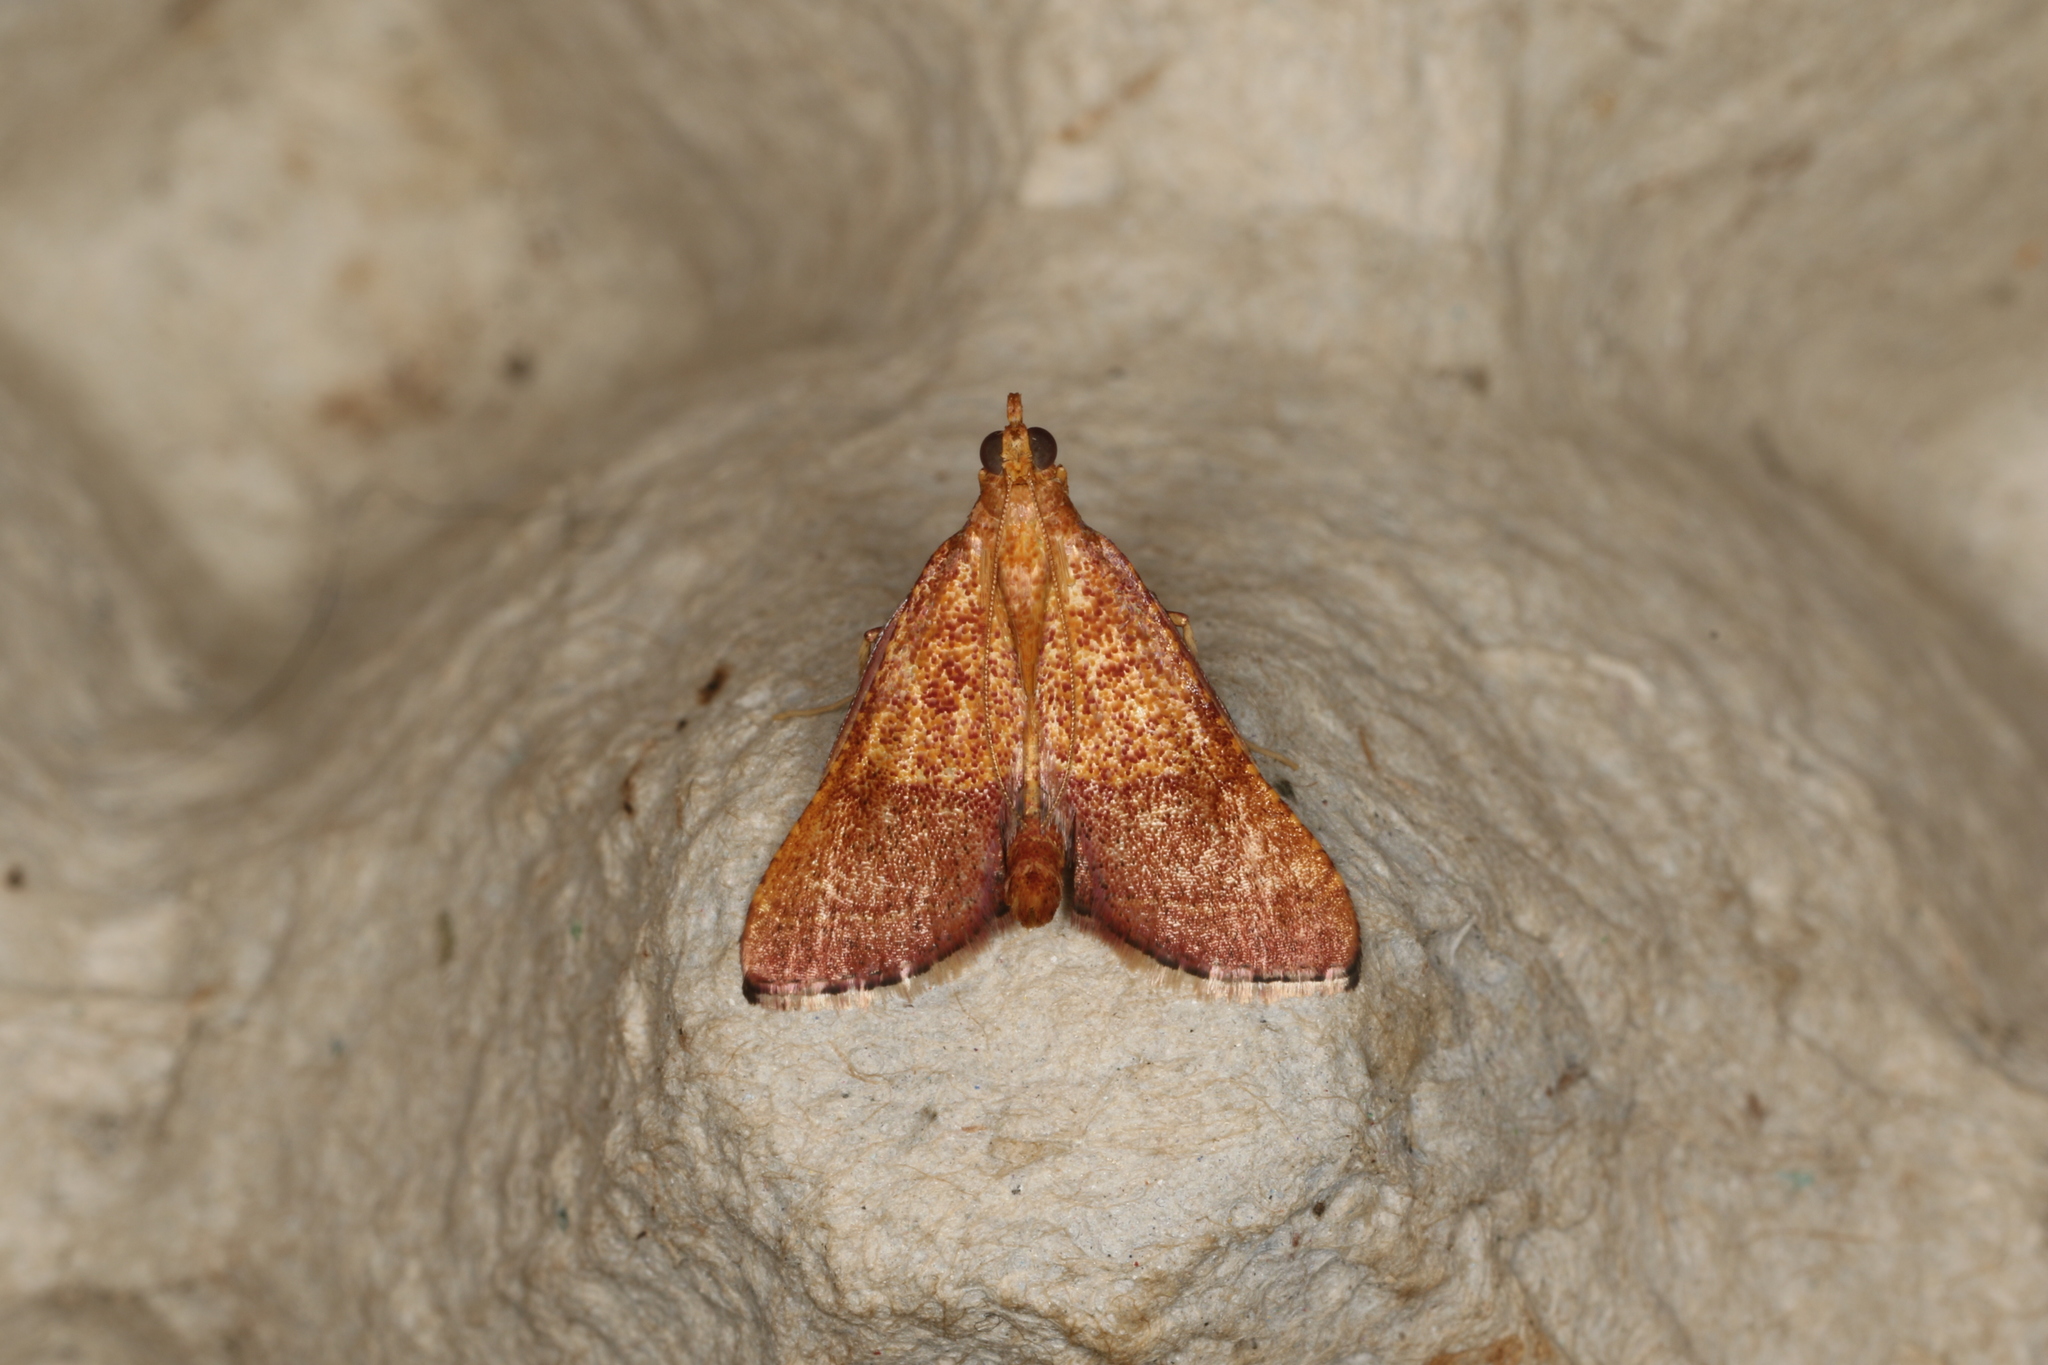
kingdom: Animalia
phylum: Arthropoda
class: Insecta
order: Lepidoptera
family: Pyralidae
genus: Endotricha
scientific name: Endotricha pyrosalis
